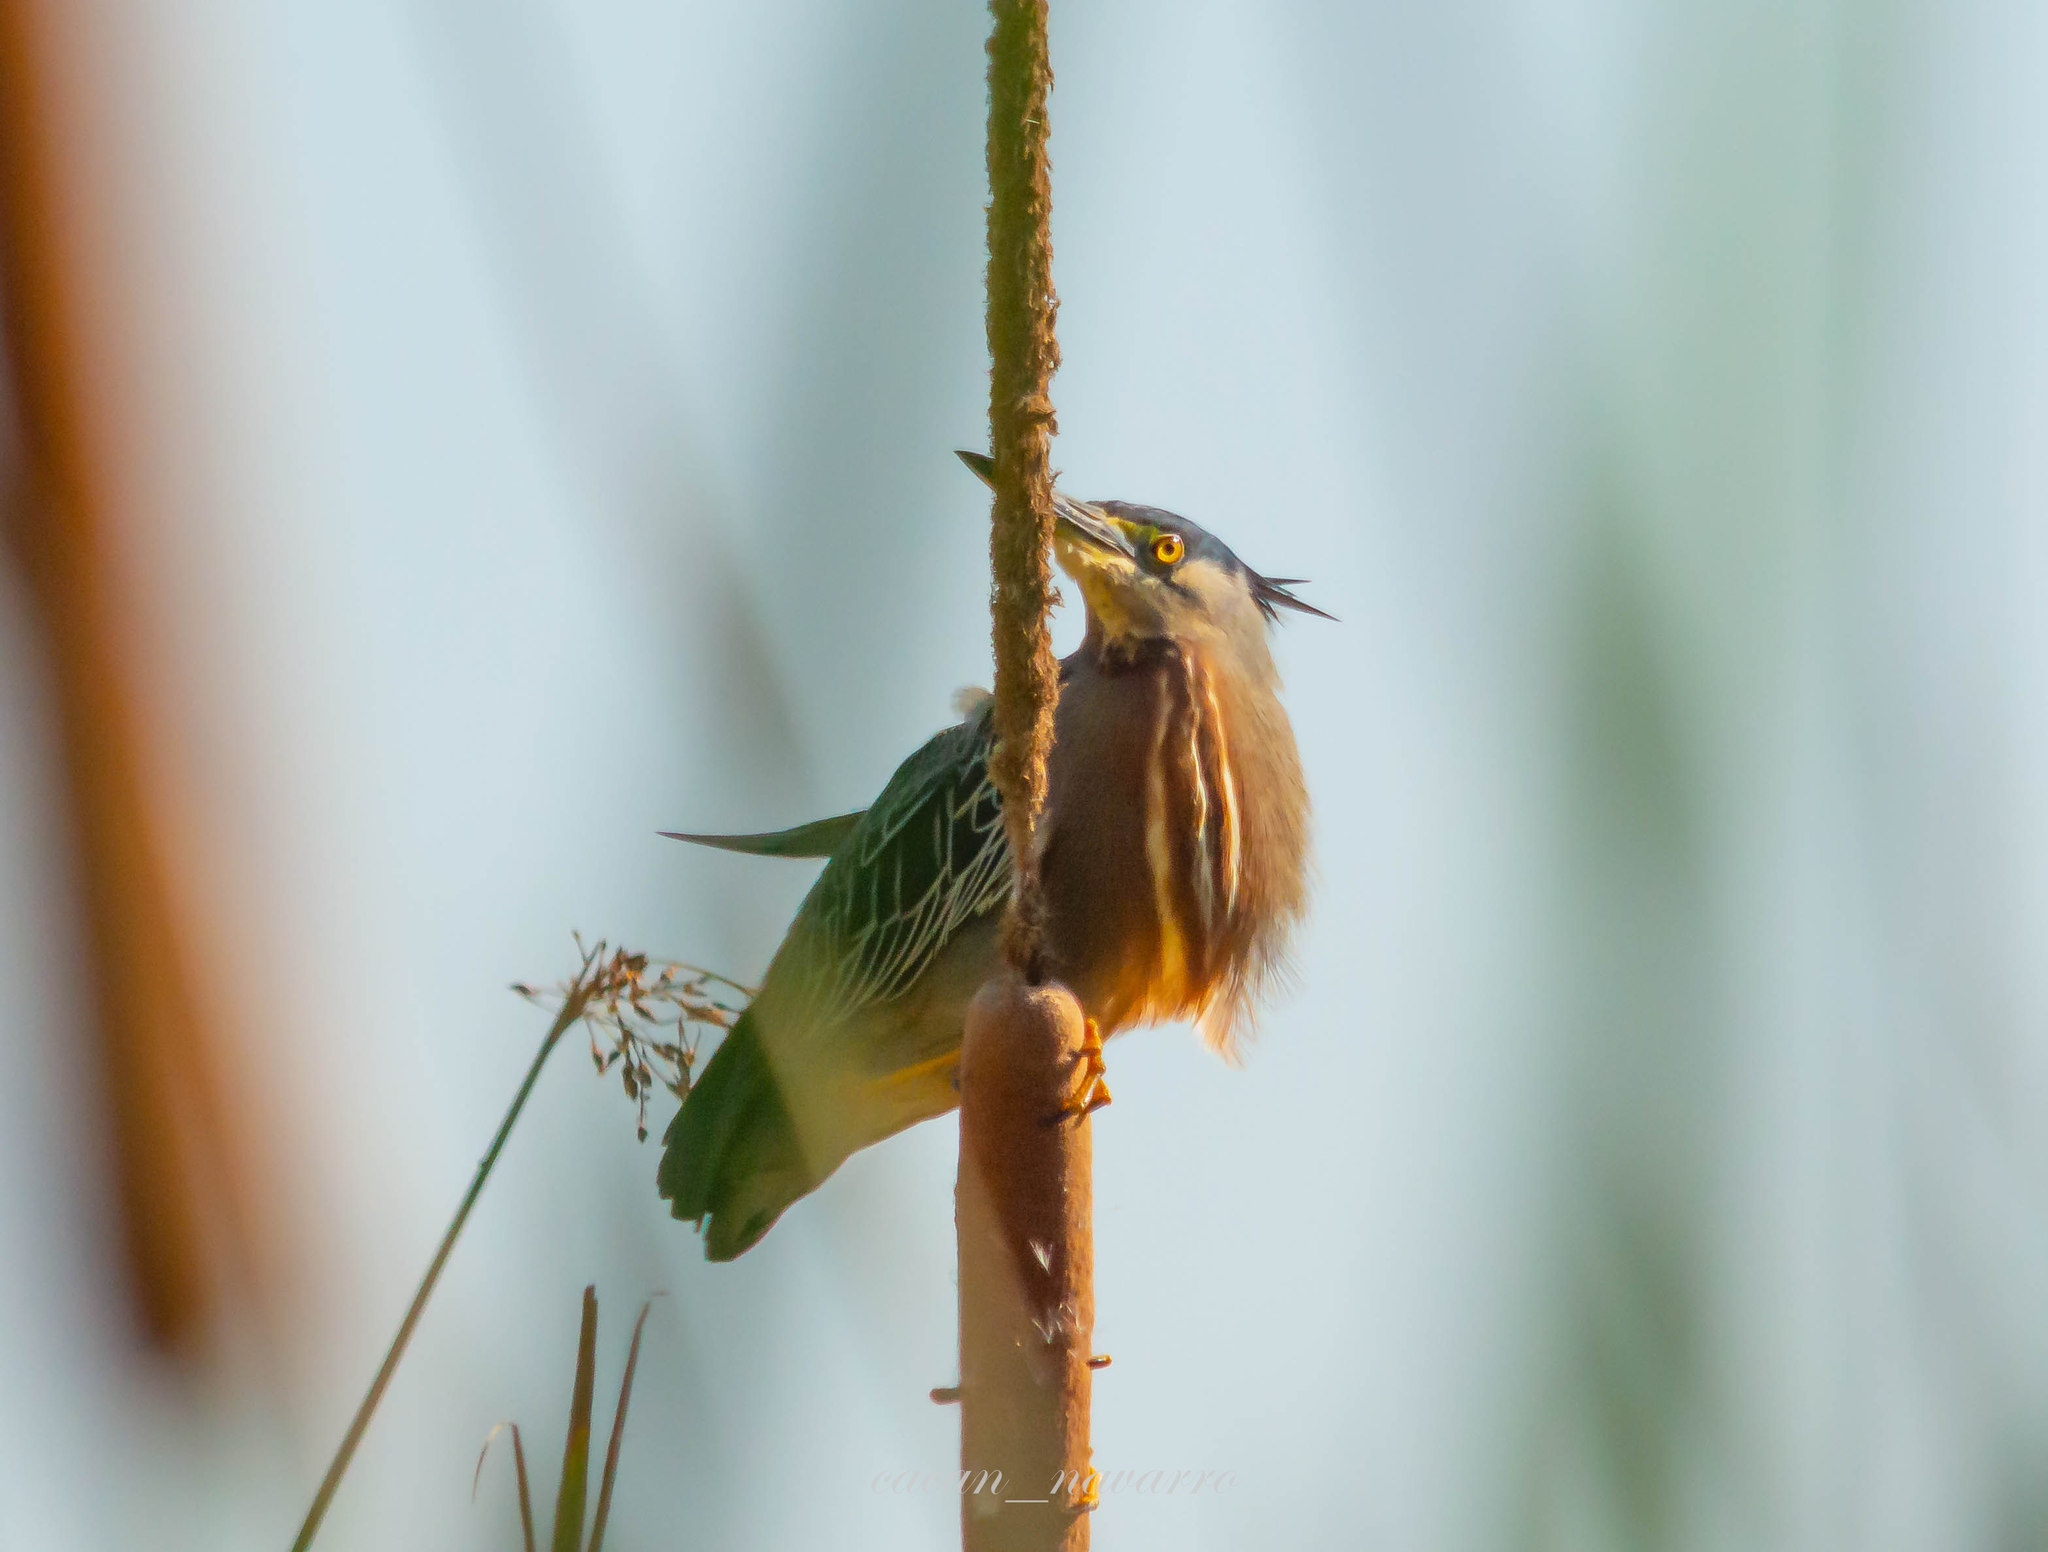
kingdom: Animalia
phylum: Chordata
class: Aves
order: Pelecaniformes
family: Ardeidae
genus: Butorides
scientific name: Butorides striata
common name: Striated heron
